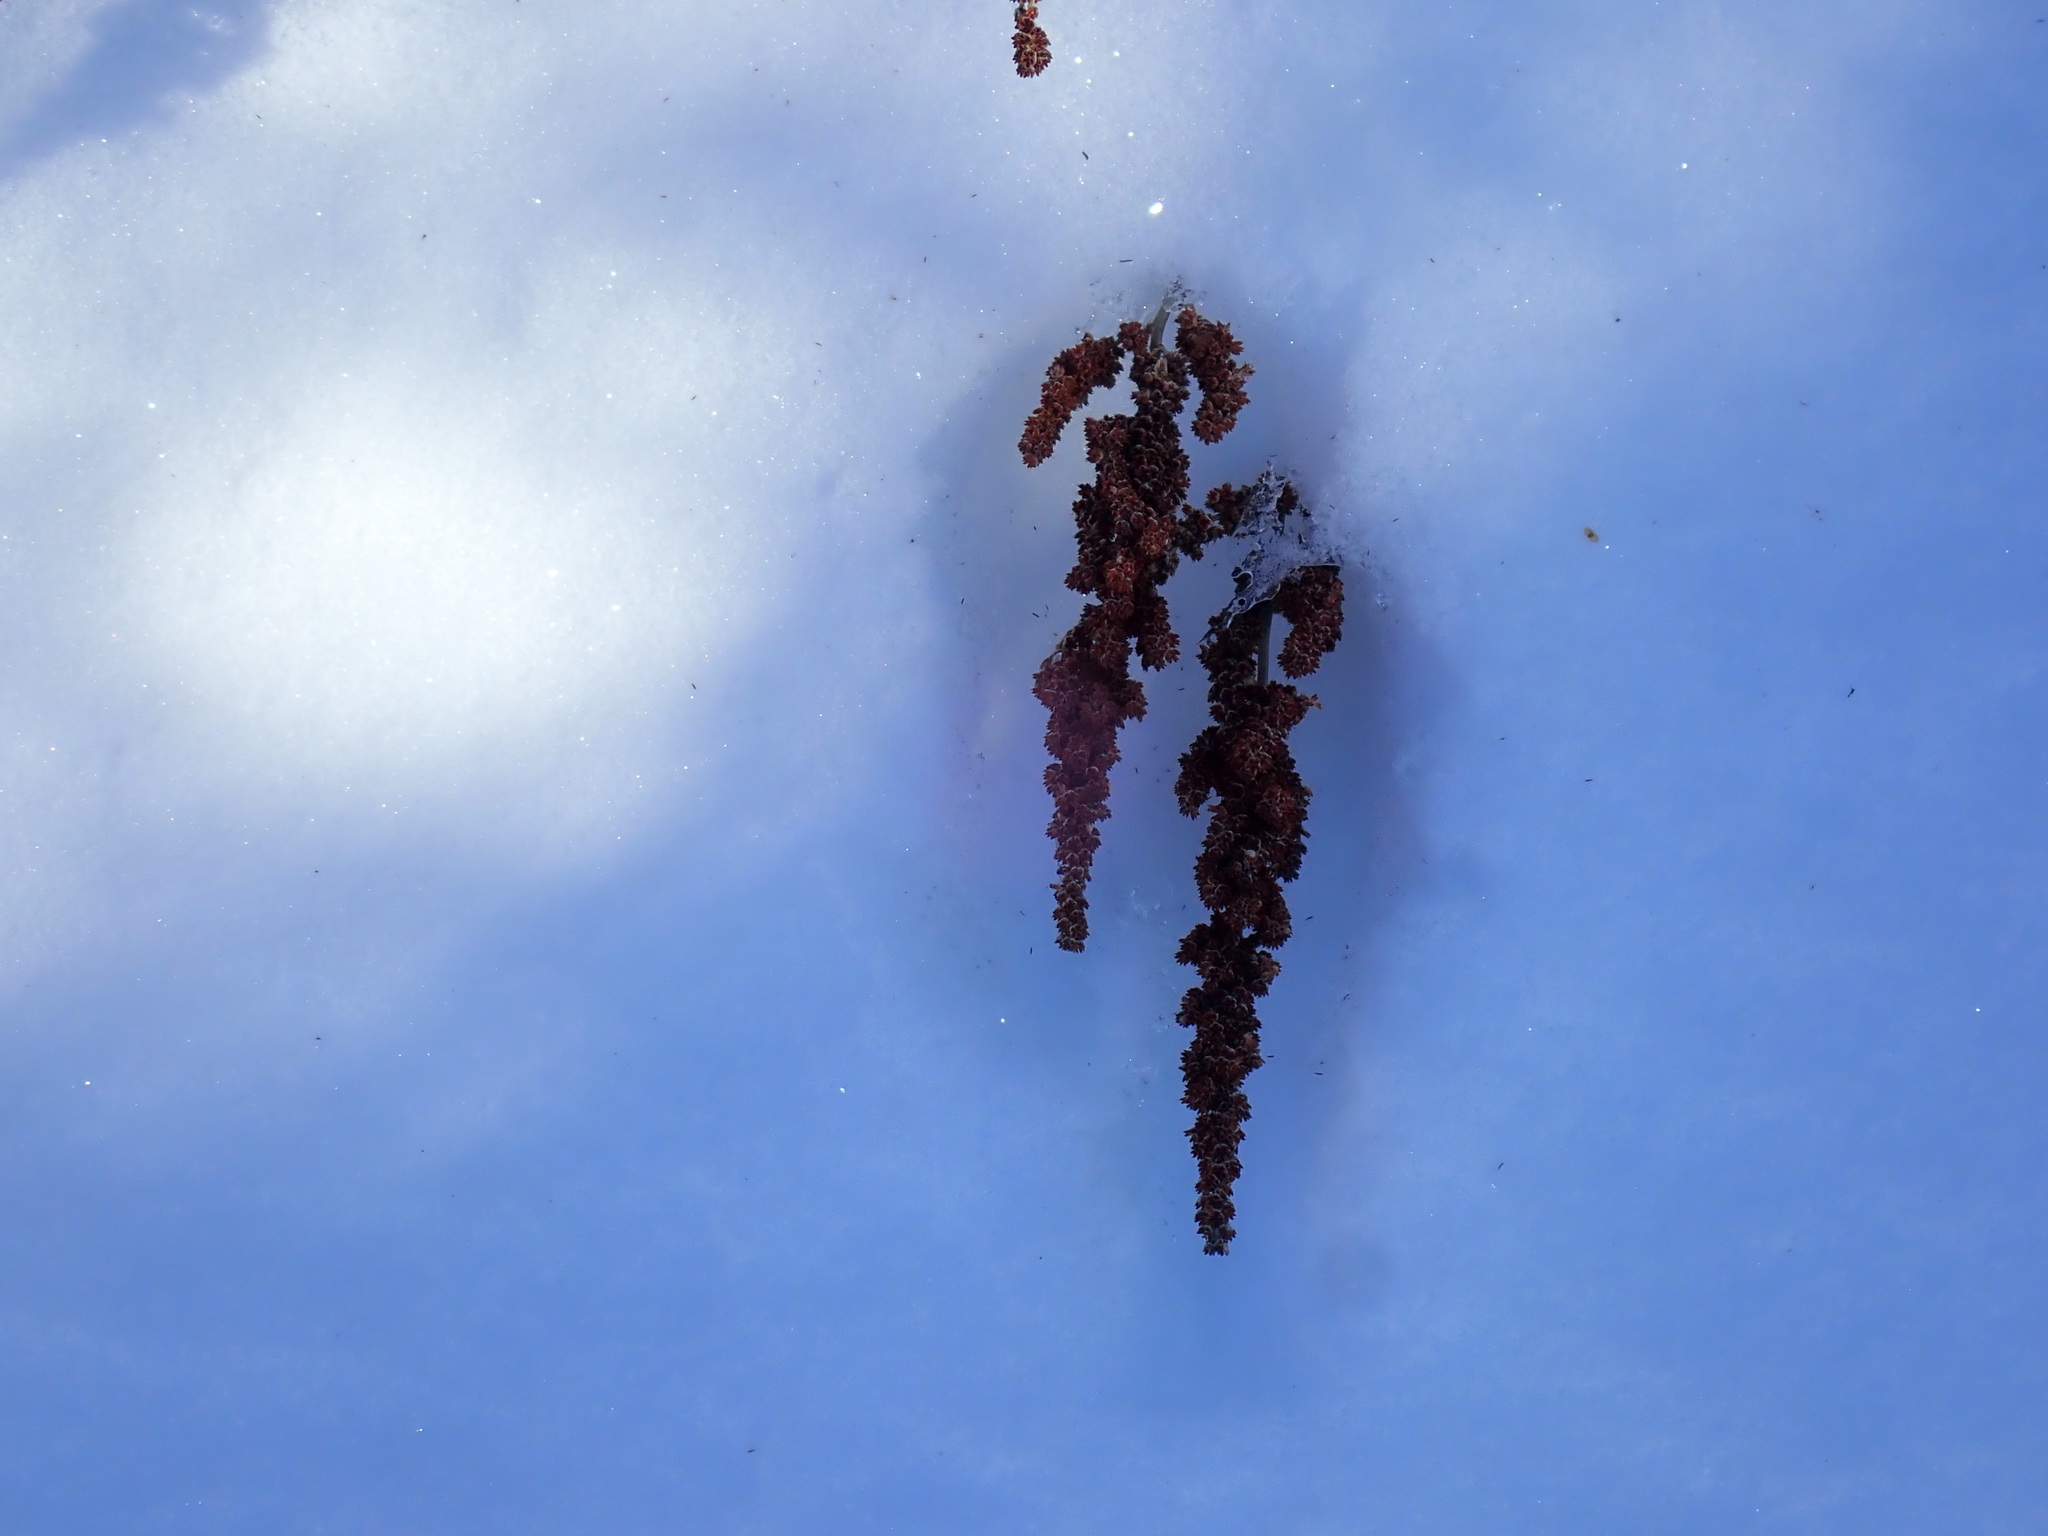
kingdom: Plantae
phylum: Tracheophyta
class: Magnoliopsida
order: Rosales
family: Rosaceae
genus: Spiraea
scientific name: Spiraea tomentosa
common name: Hardhack
